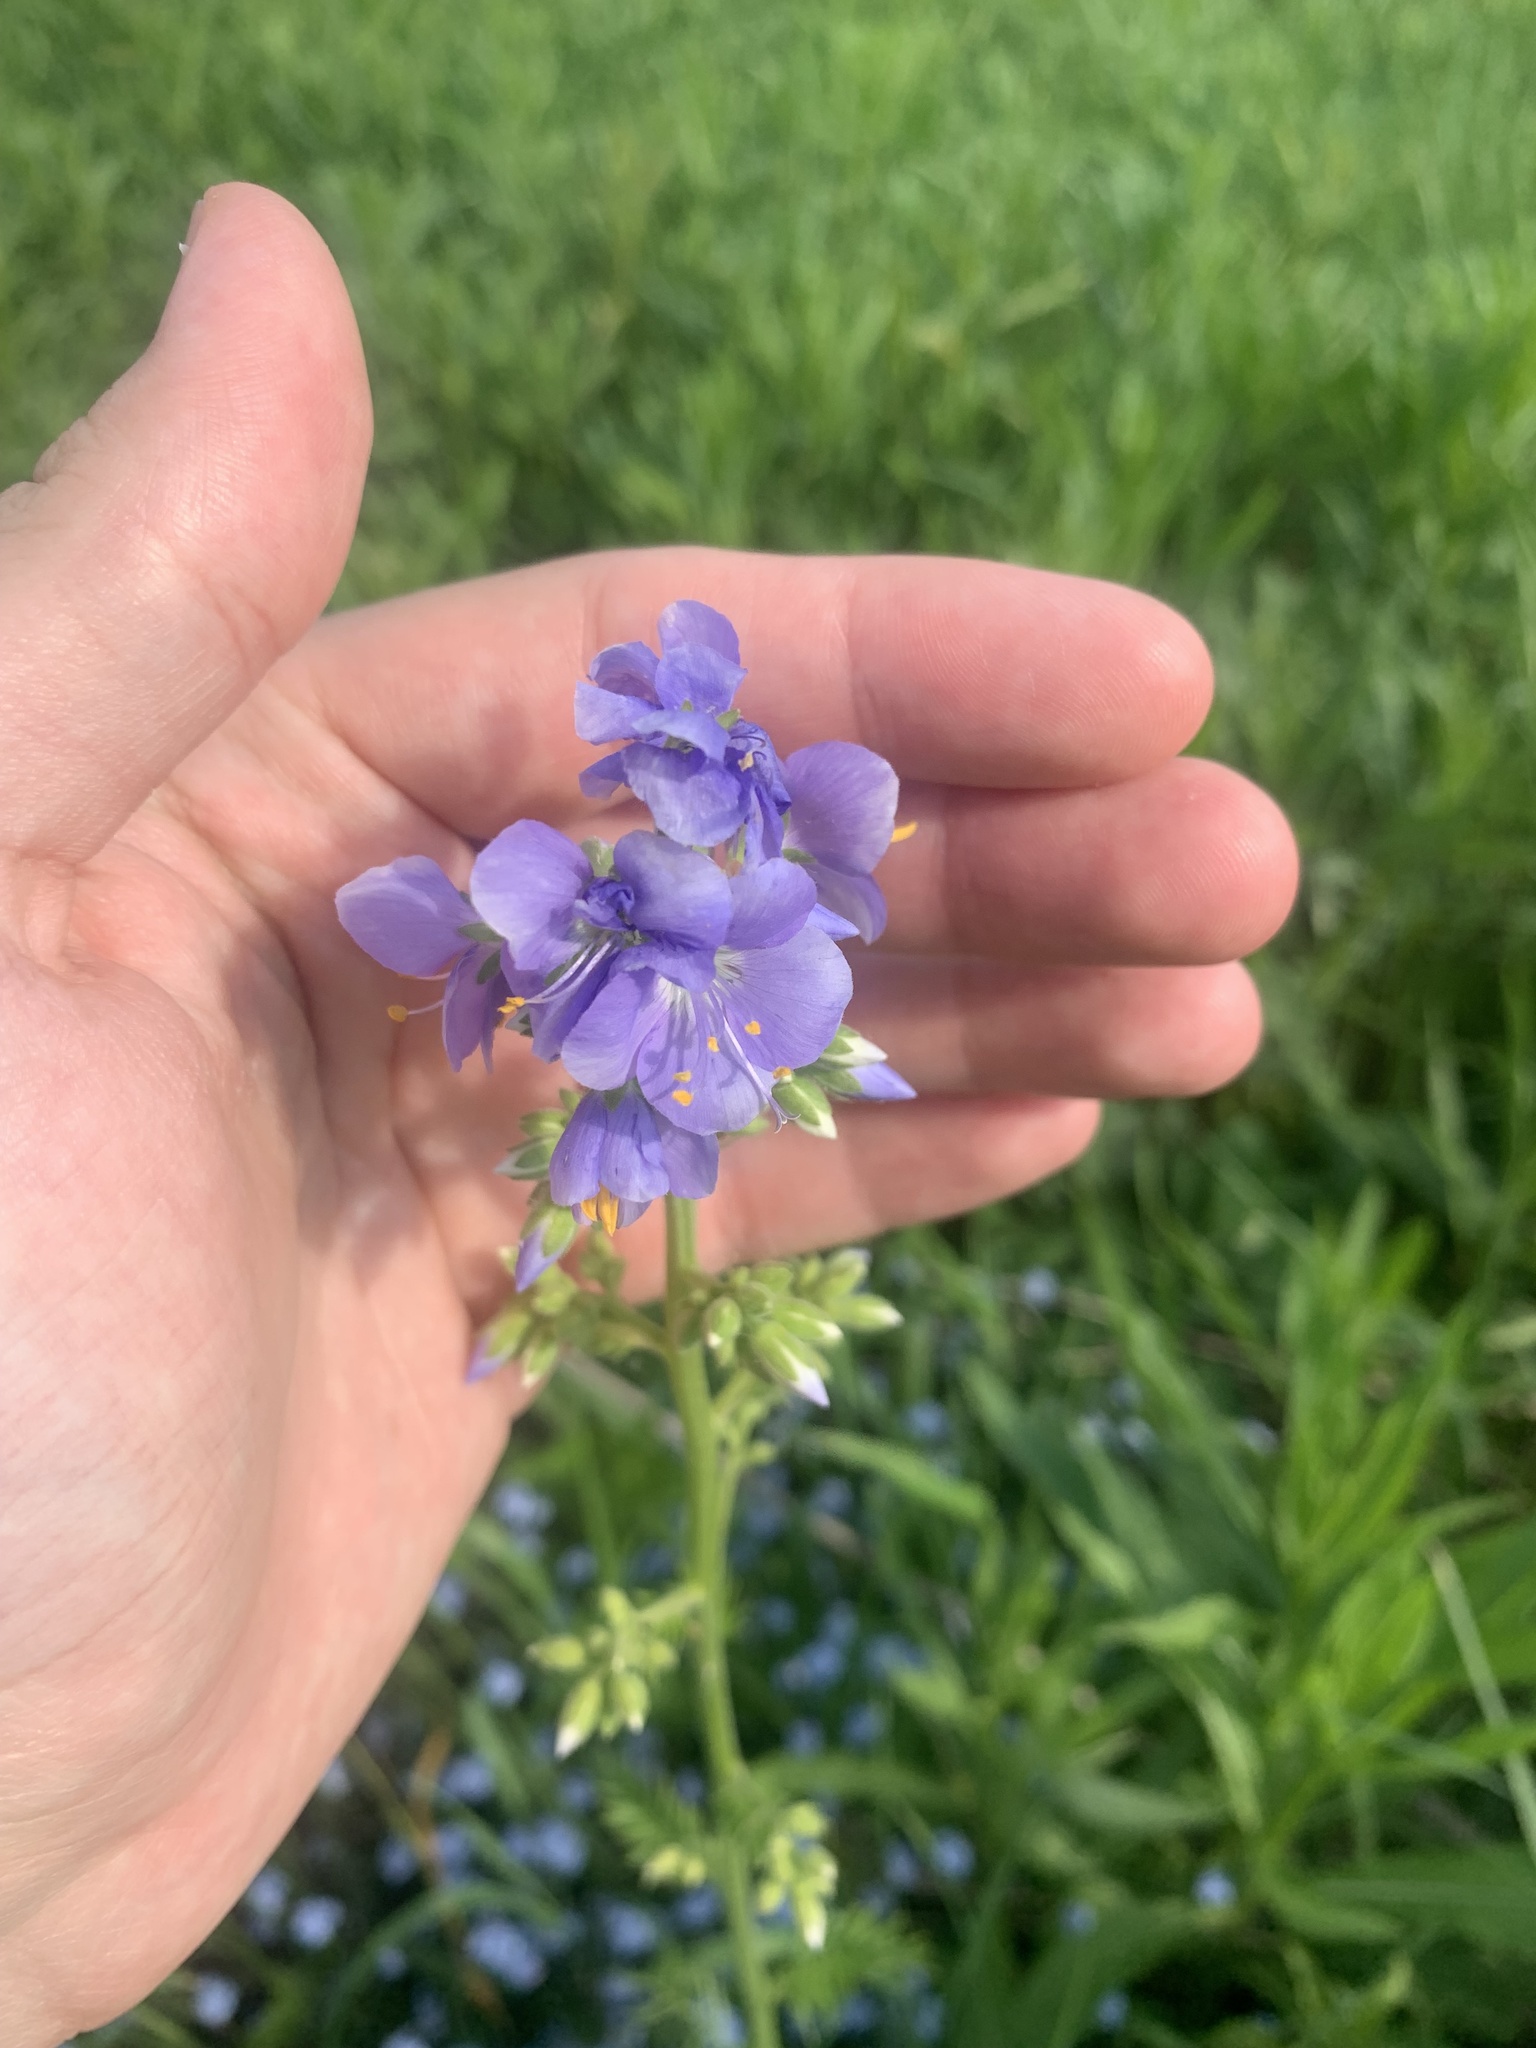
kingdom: Plantae
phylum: Tracheophyta
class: Magnoliopsida
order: Ericales
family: Polemoniaceae
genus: Polemonium
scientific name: Polemonium caeruleum
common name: Jacob's-ladder
